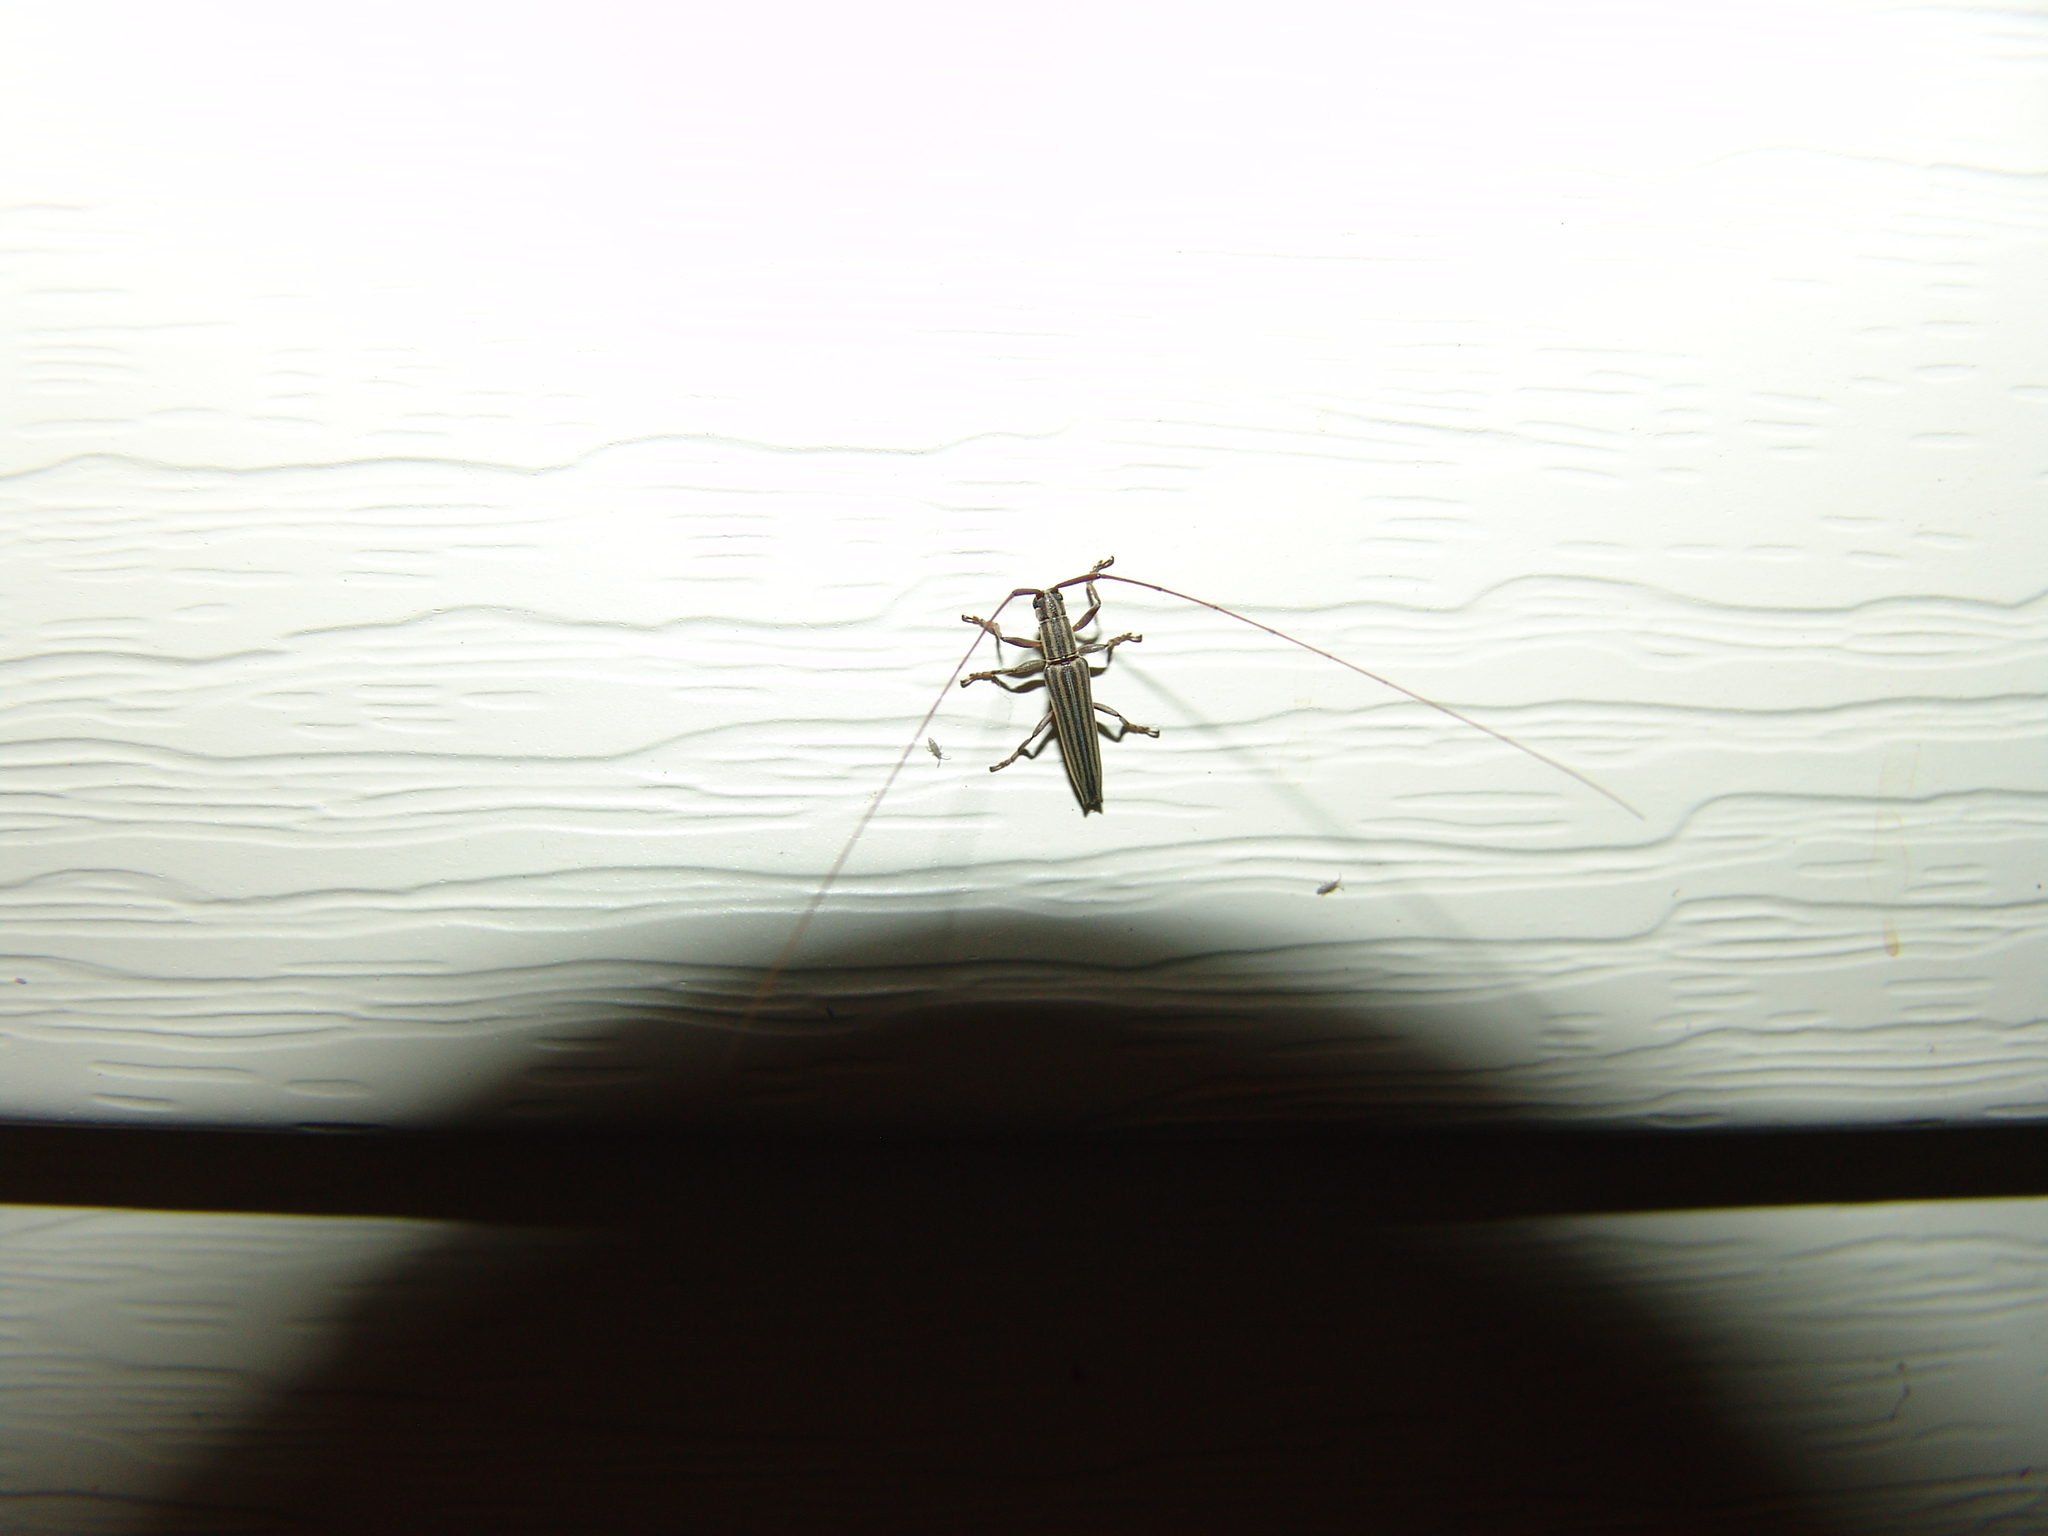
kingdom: Animalia
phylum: Arthropoda
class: Insecta
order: Coleoptera
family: Cerambycidae
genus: Hippopsis
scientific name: Hippopsis
